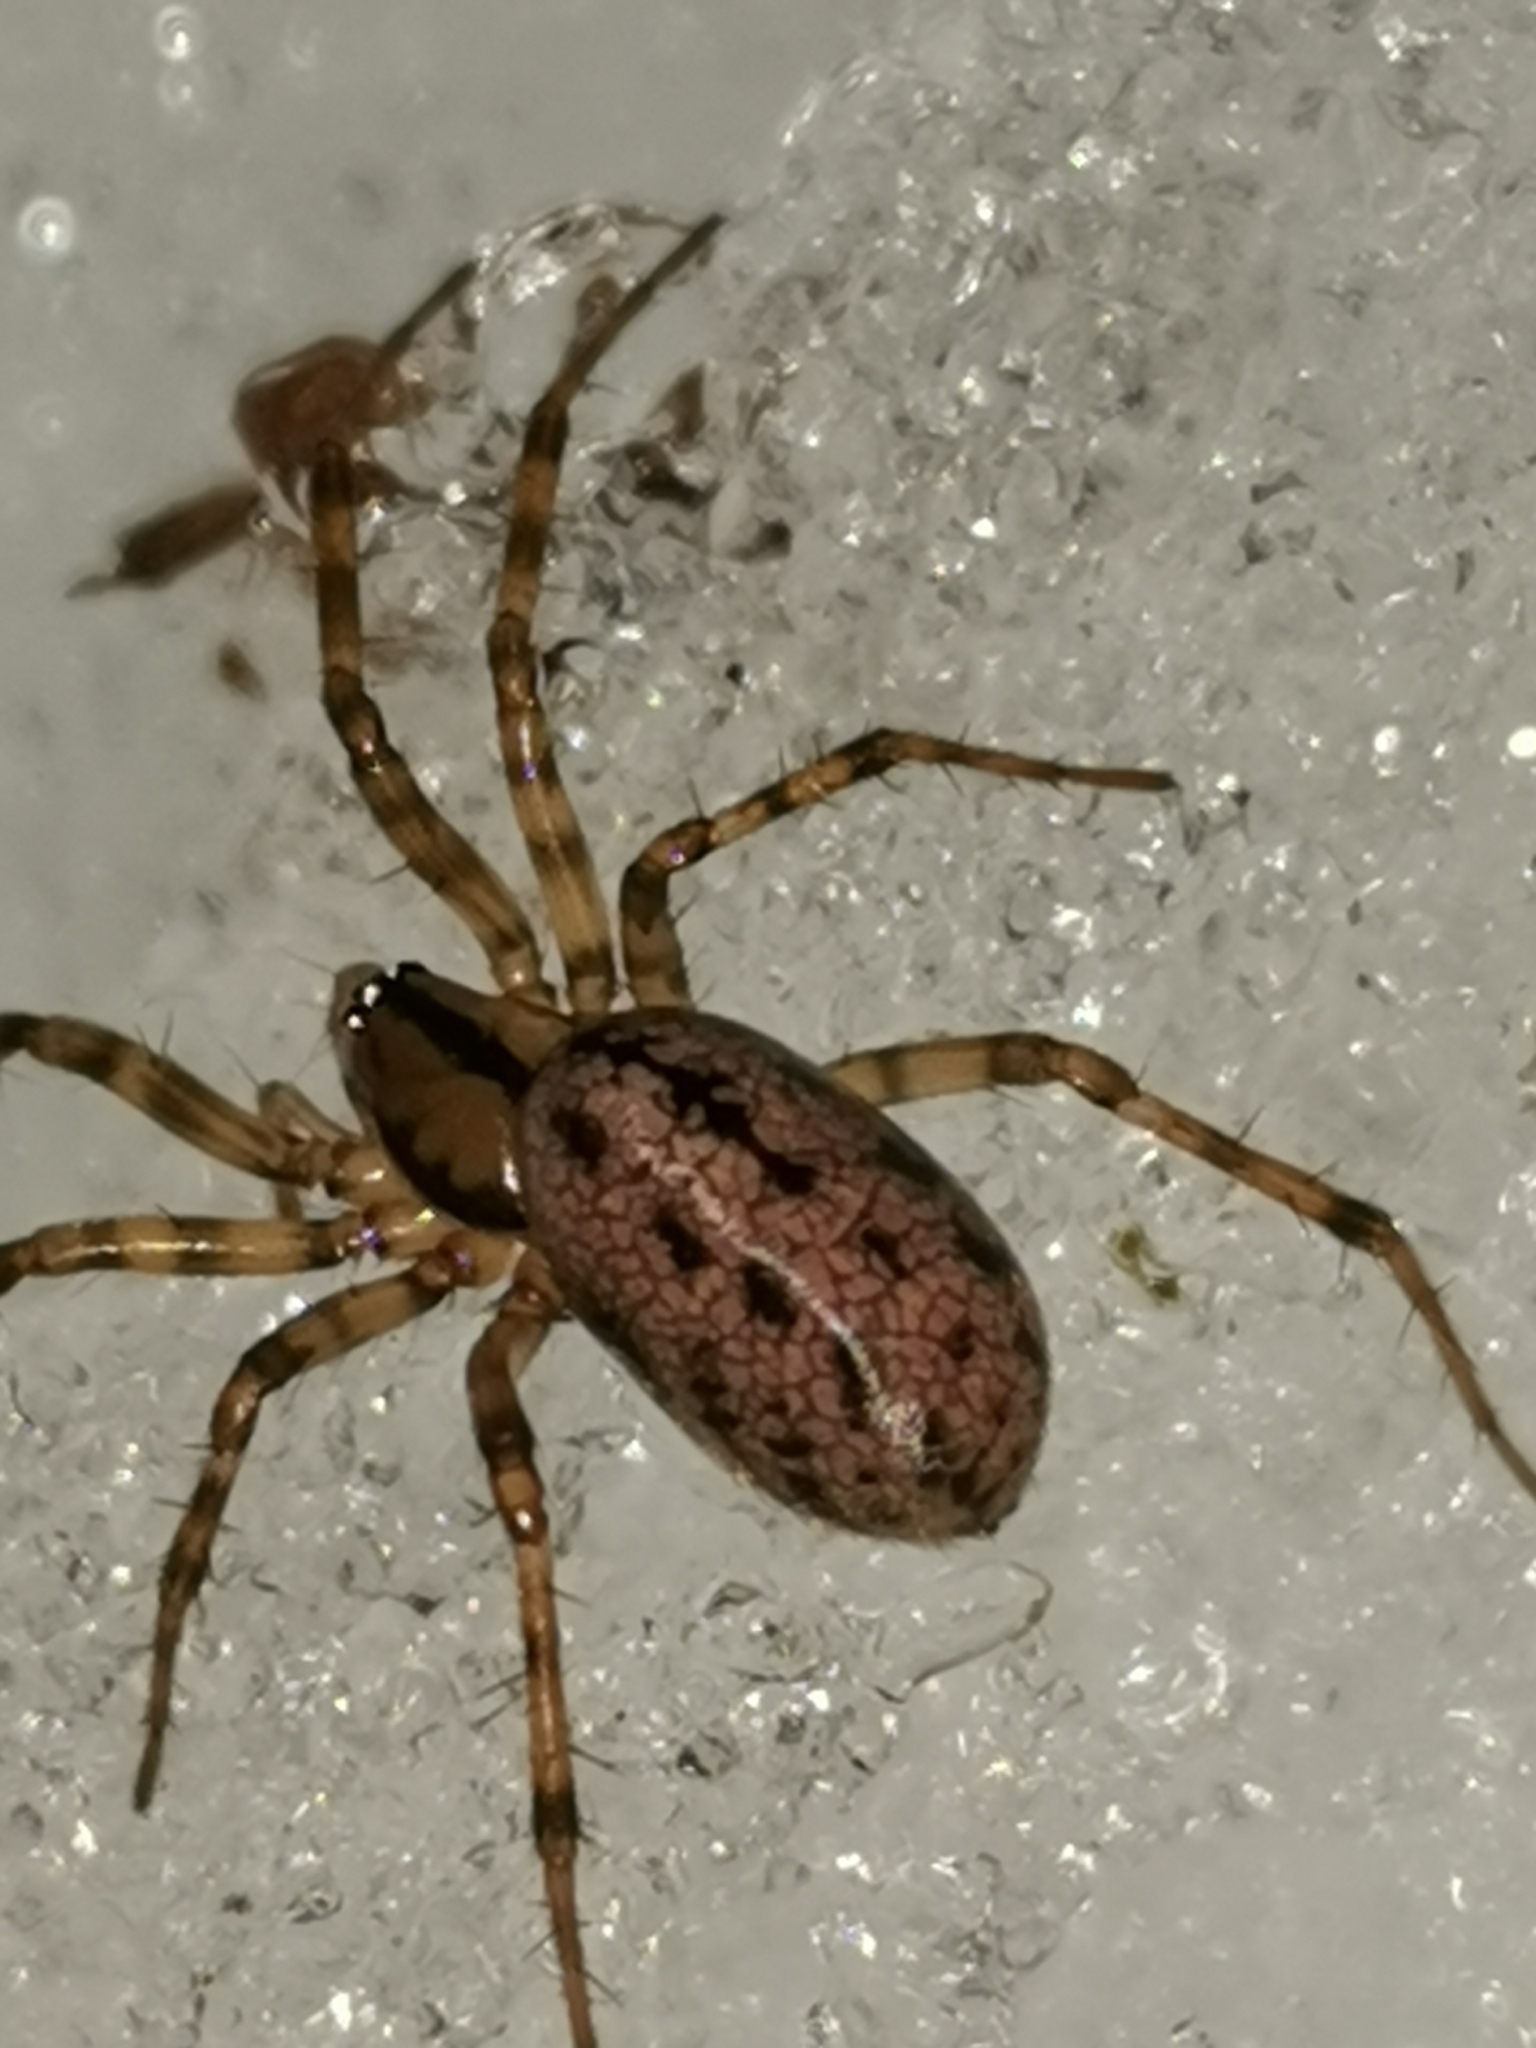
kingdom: Animalia
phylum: Arthropoda
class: Arachnida
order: Araneae
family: Linyphiidae
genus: Stemonyphantes
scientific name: Stemonyphantes lineatus
